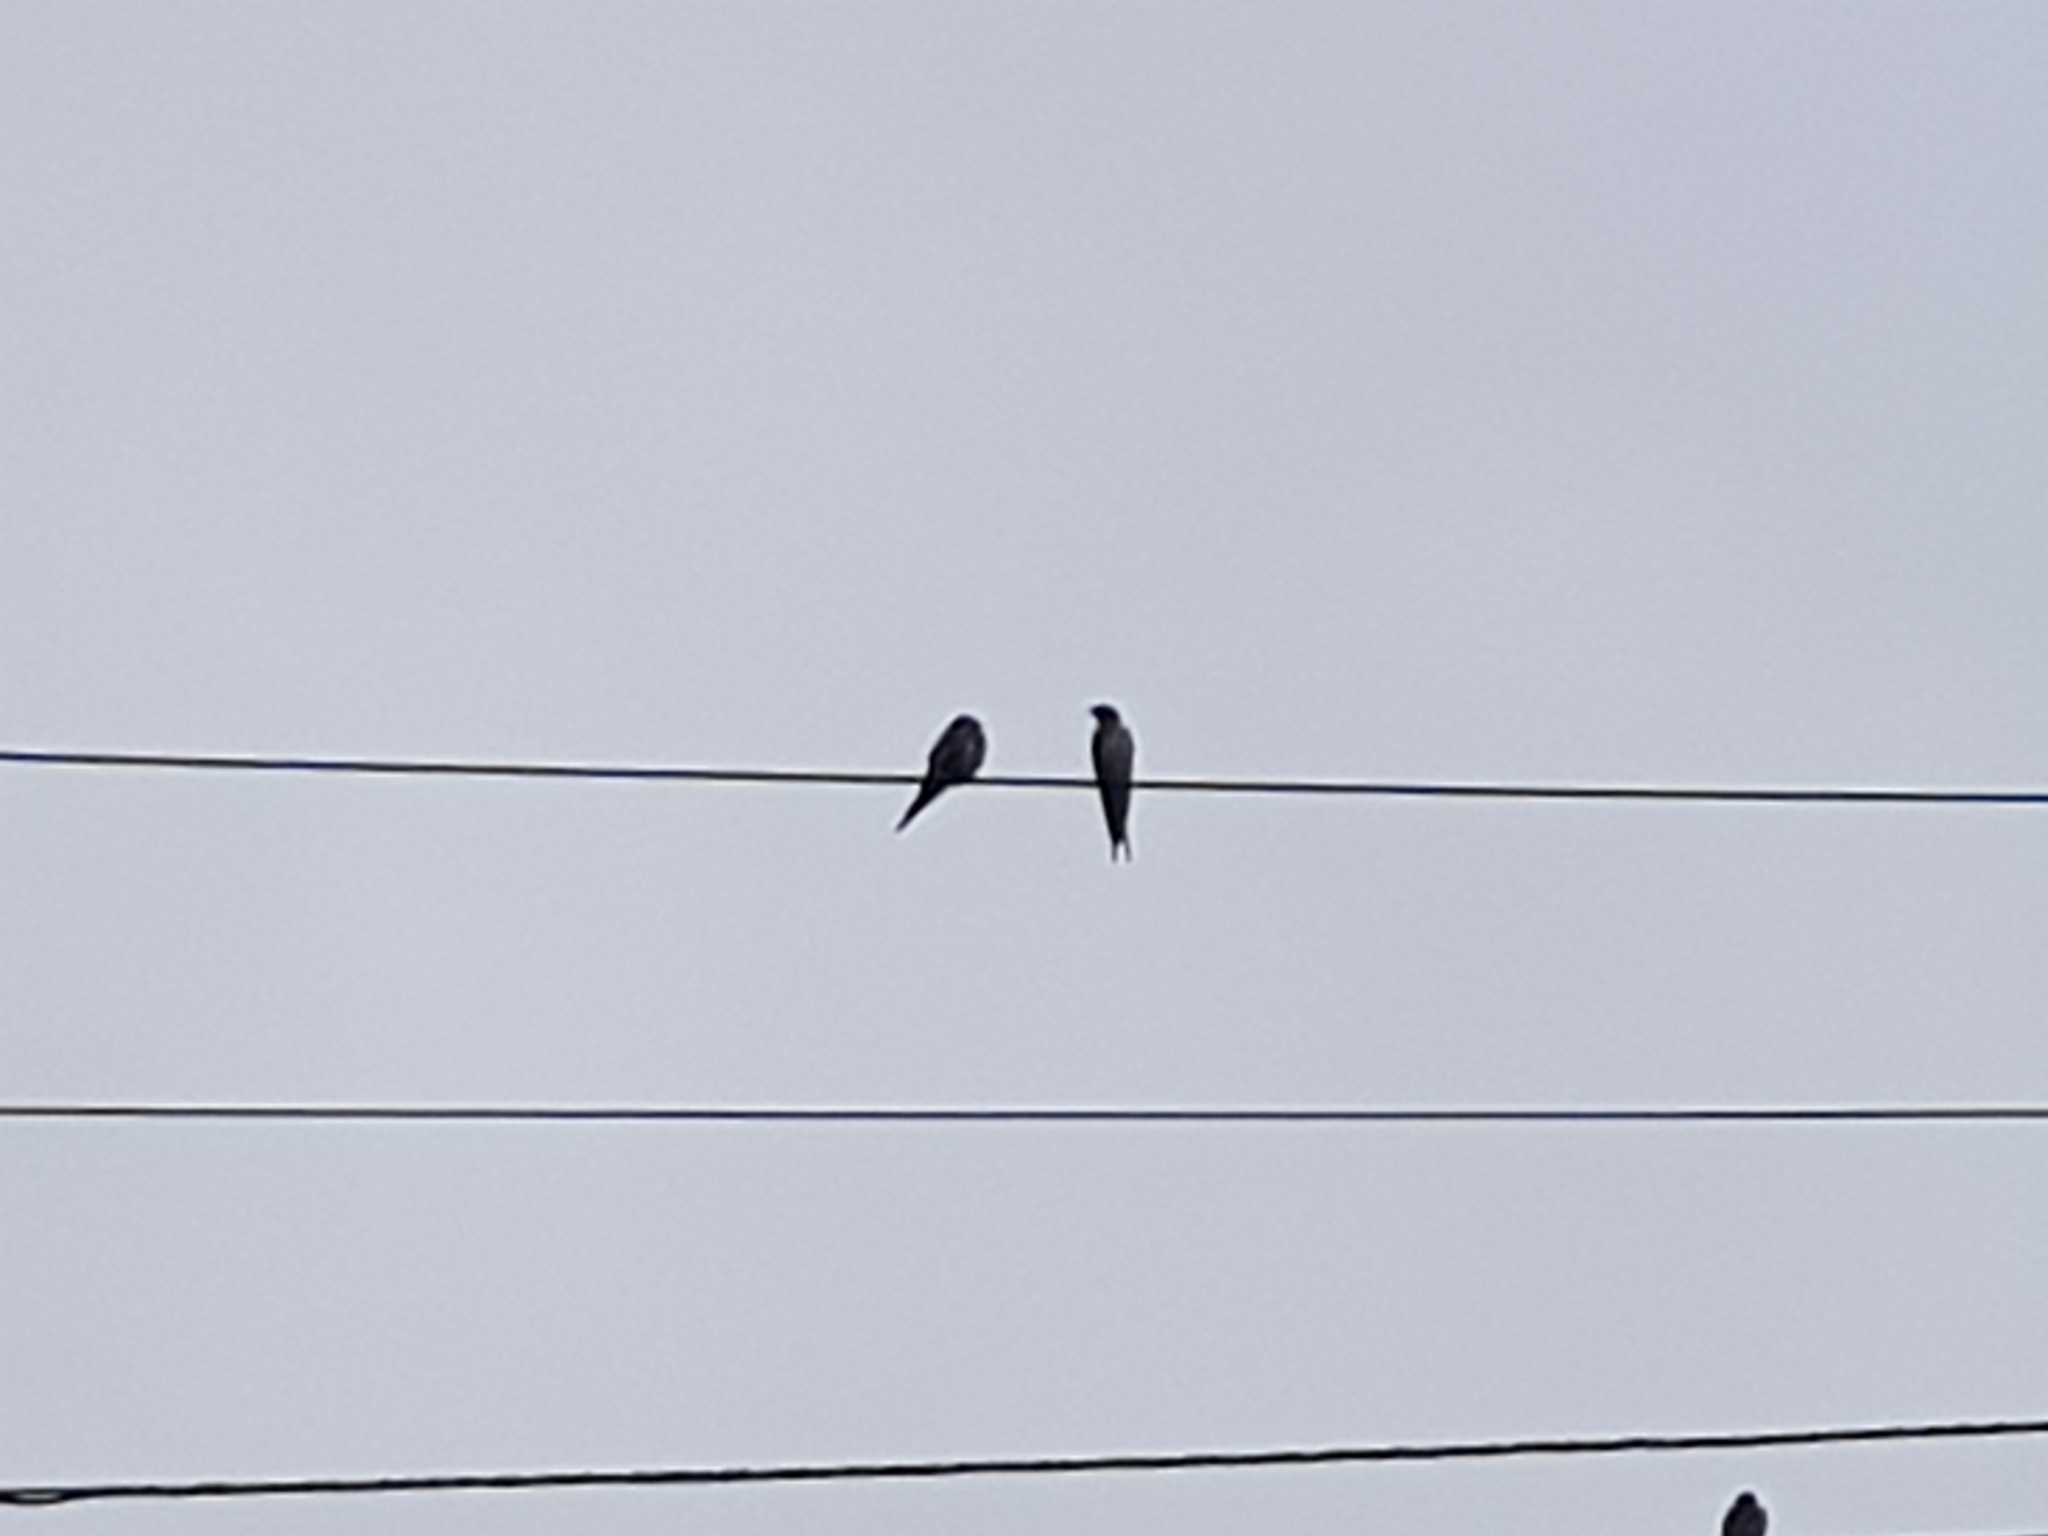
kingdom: Animalia
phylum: Chordata
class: Aves
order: Passeriformes
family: Hirundinidae
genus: Hirundo
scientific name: Hirundo neoxena
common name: Welcome swallow
